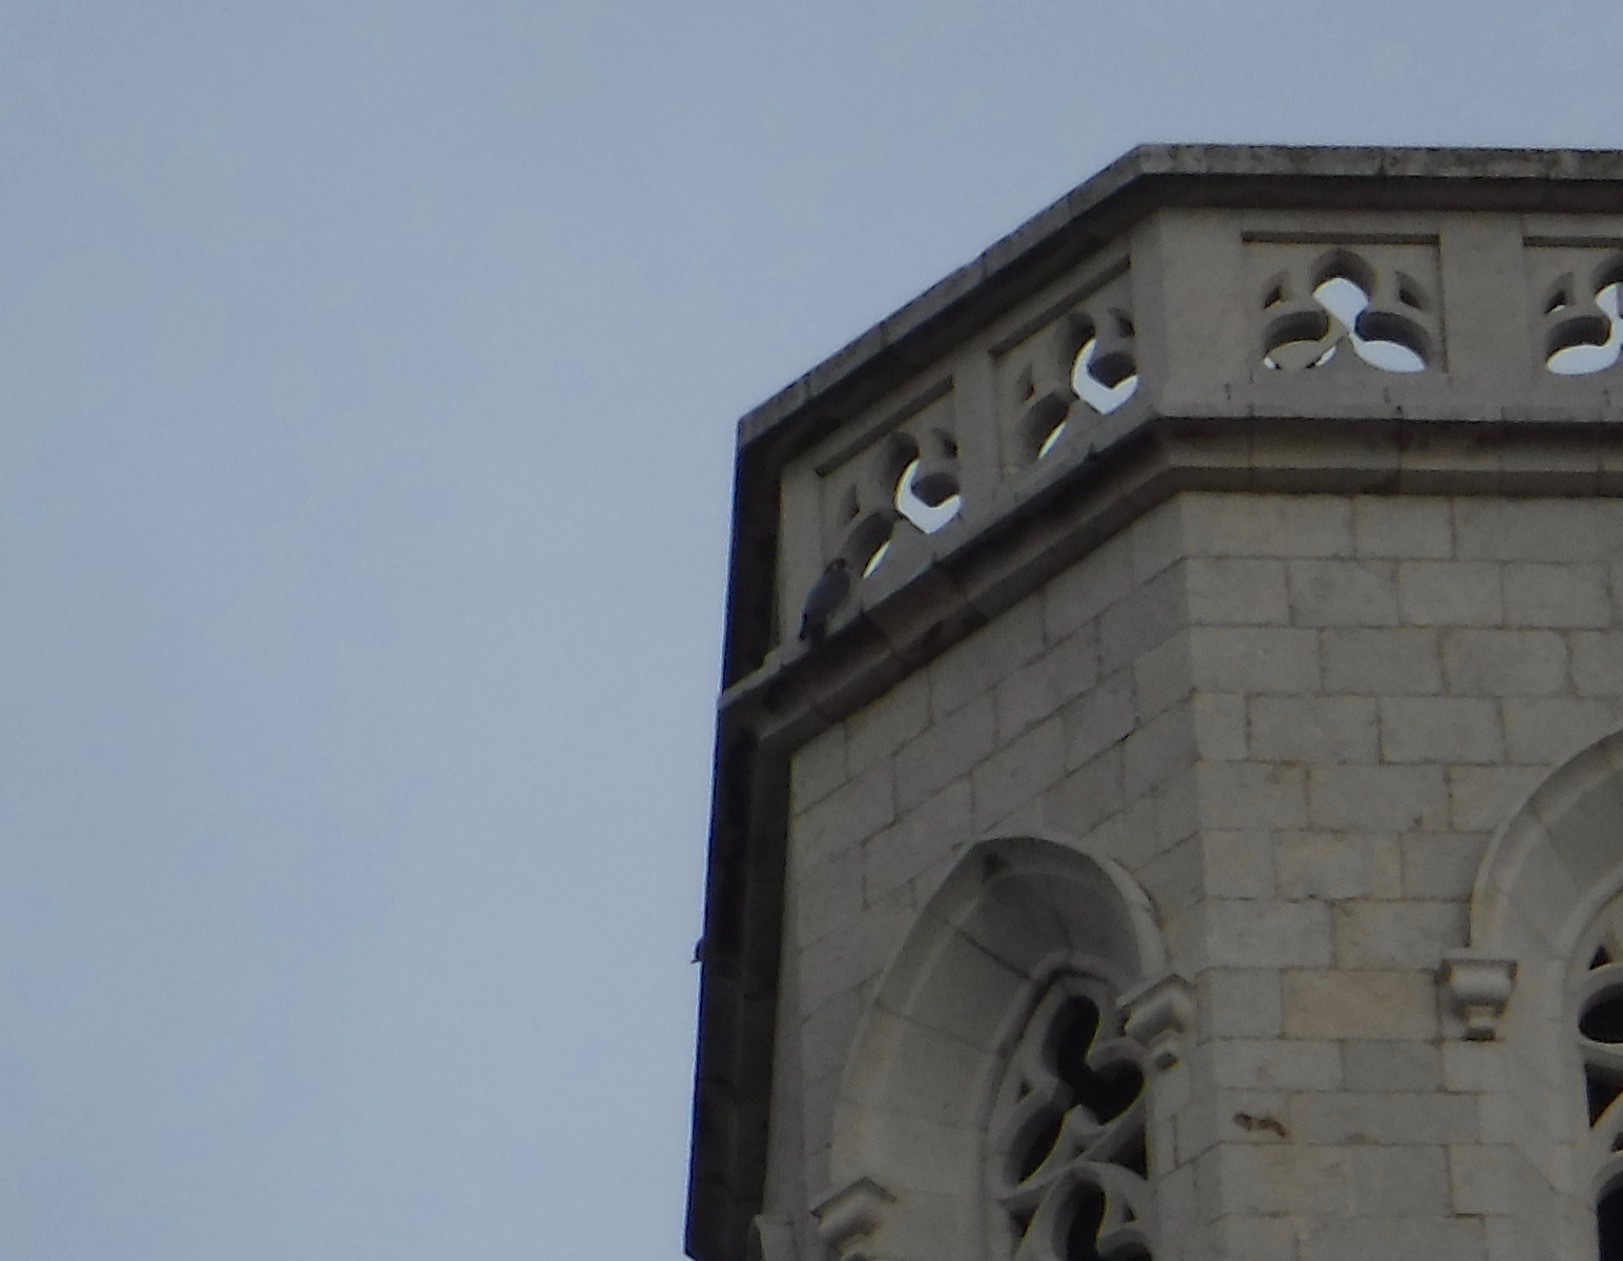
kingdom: Animalia
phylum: Chordata
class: Aves
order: Falconiformes
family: Falconidae
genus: Falco
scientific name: Falco peregrinus
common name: Peregrine falcon
